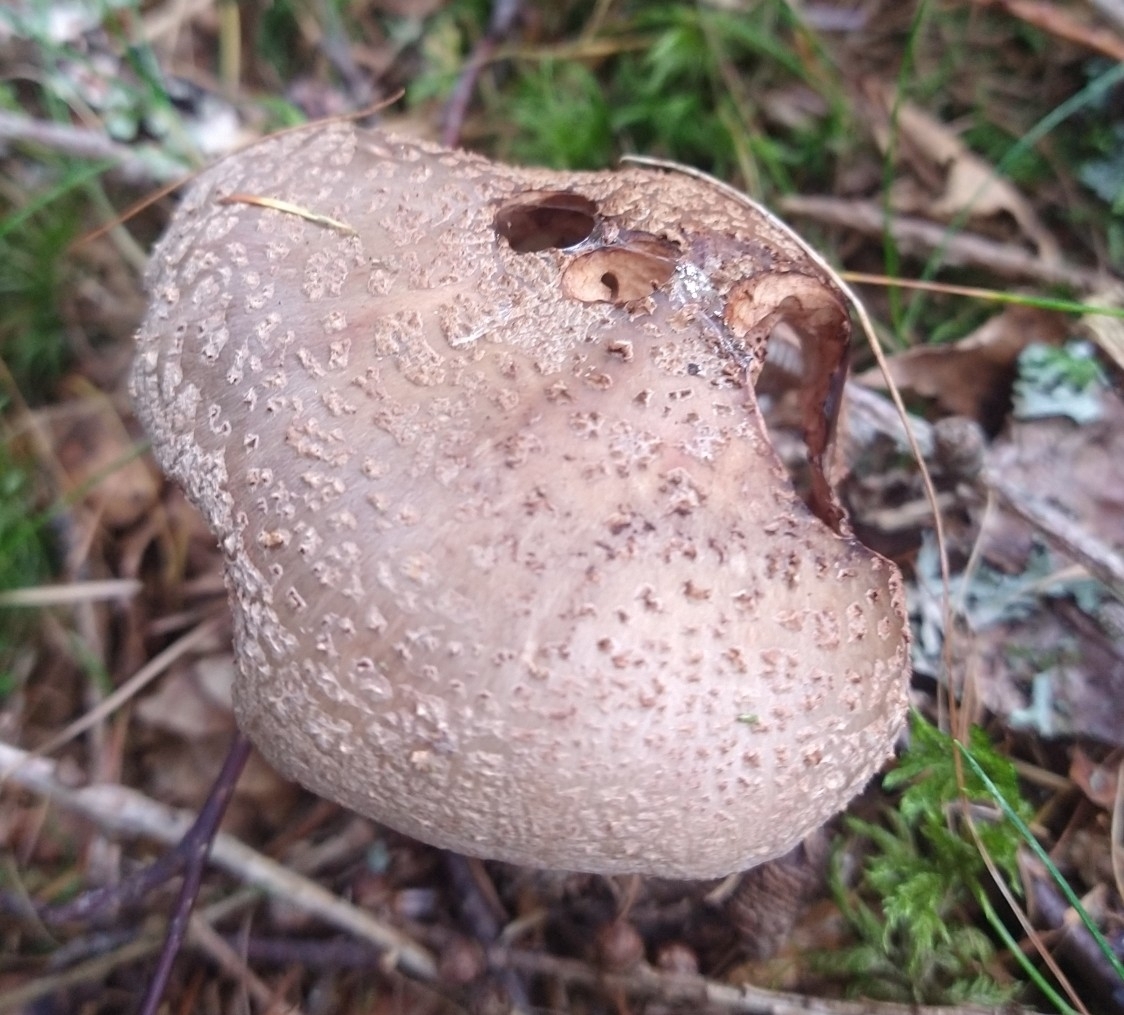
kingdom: Fungi
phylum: Basidiomycota
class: Agaricomycetes
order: Agaricales
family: Amanitaceae
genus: Amanita
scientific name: Amanita rubescens
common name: Blusher
